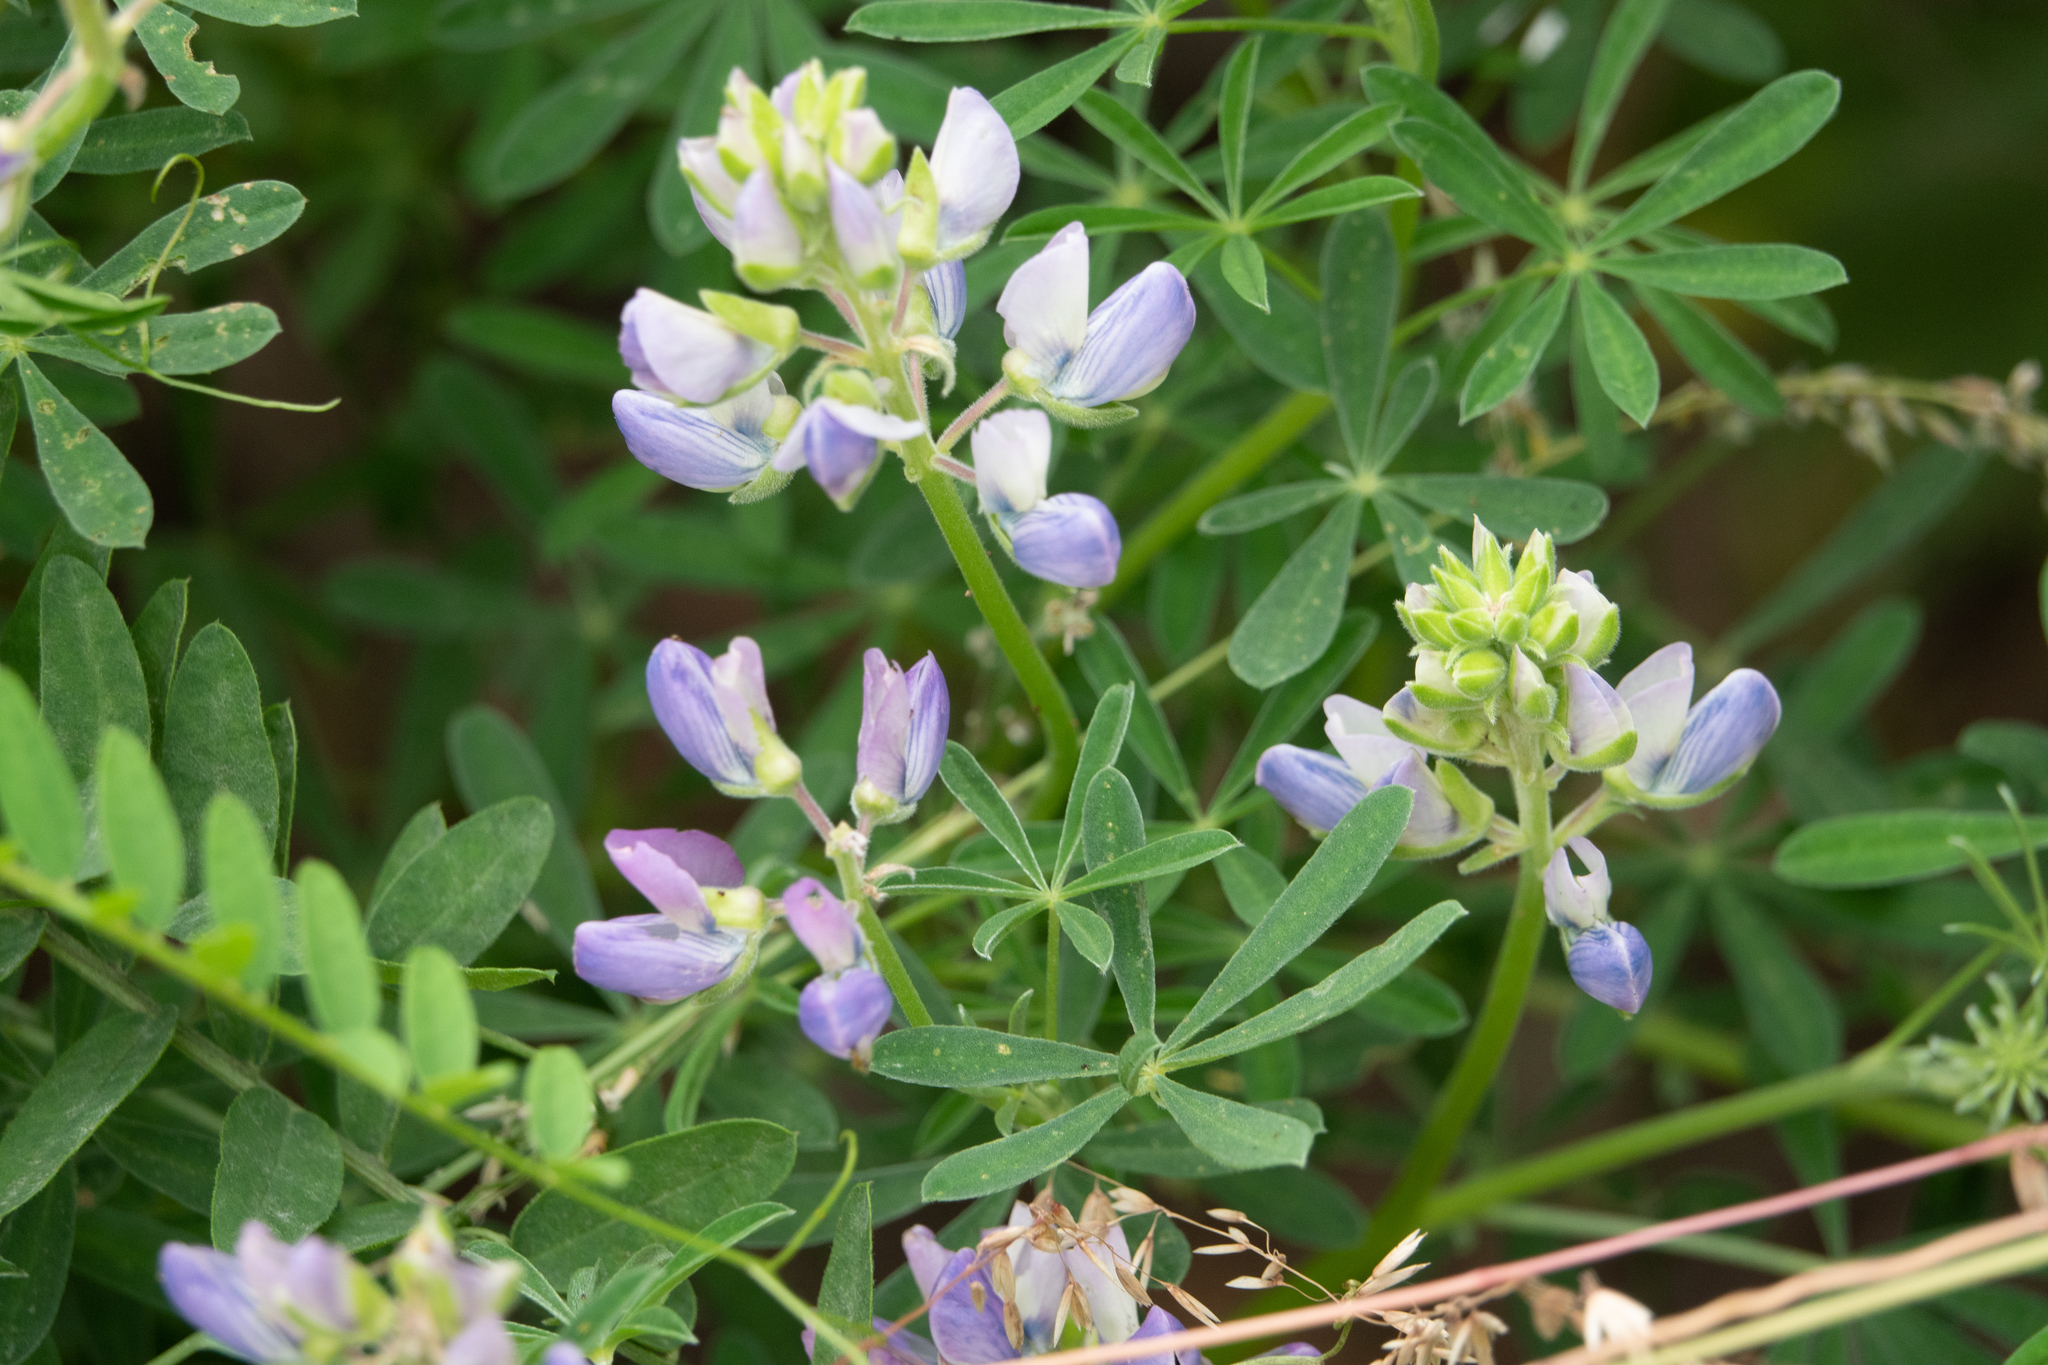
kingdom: Plantae
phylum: Tracheophyta
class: Magnoliopsida
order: Fabales
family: Fabaceae
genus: Lupinus
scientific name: Lupinus arboreus
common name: Yellow bush lupine
